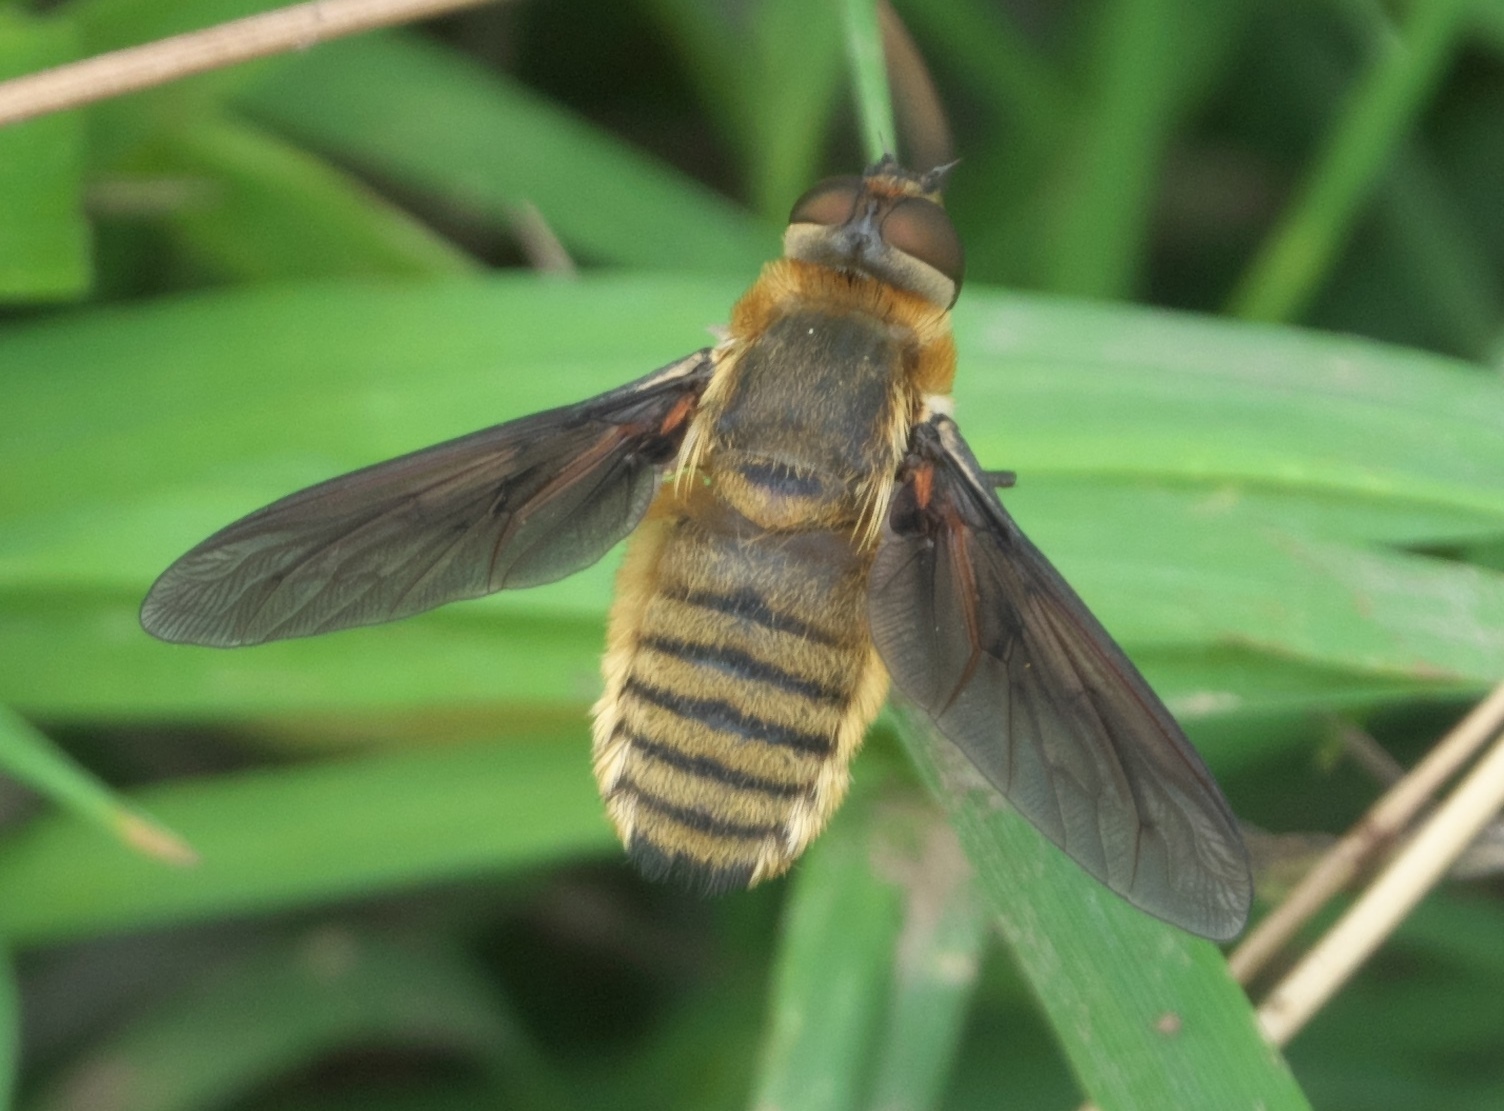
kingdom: Animalia
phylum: Arthropoda
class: Insecta
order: Diptera
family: Bombyliidae
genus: Poecilanthrax
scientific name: Poecilanthrax lucifer
